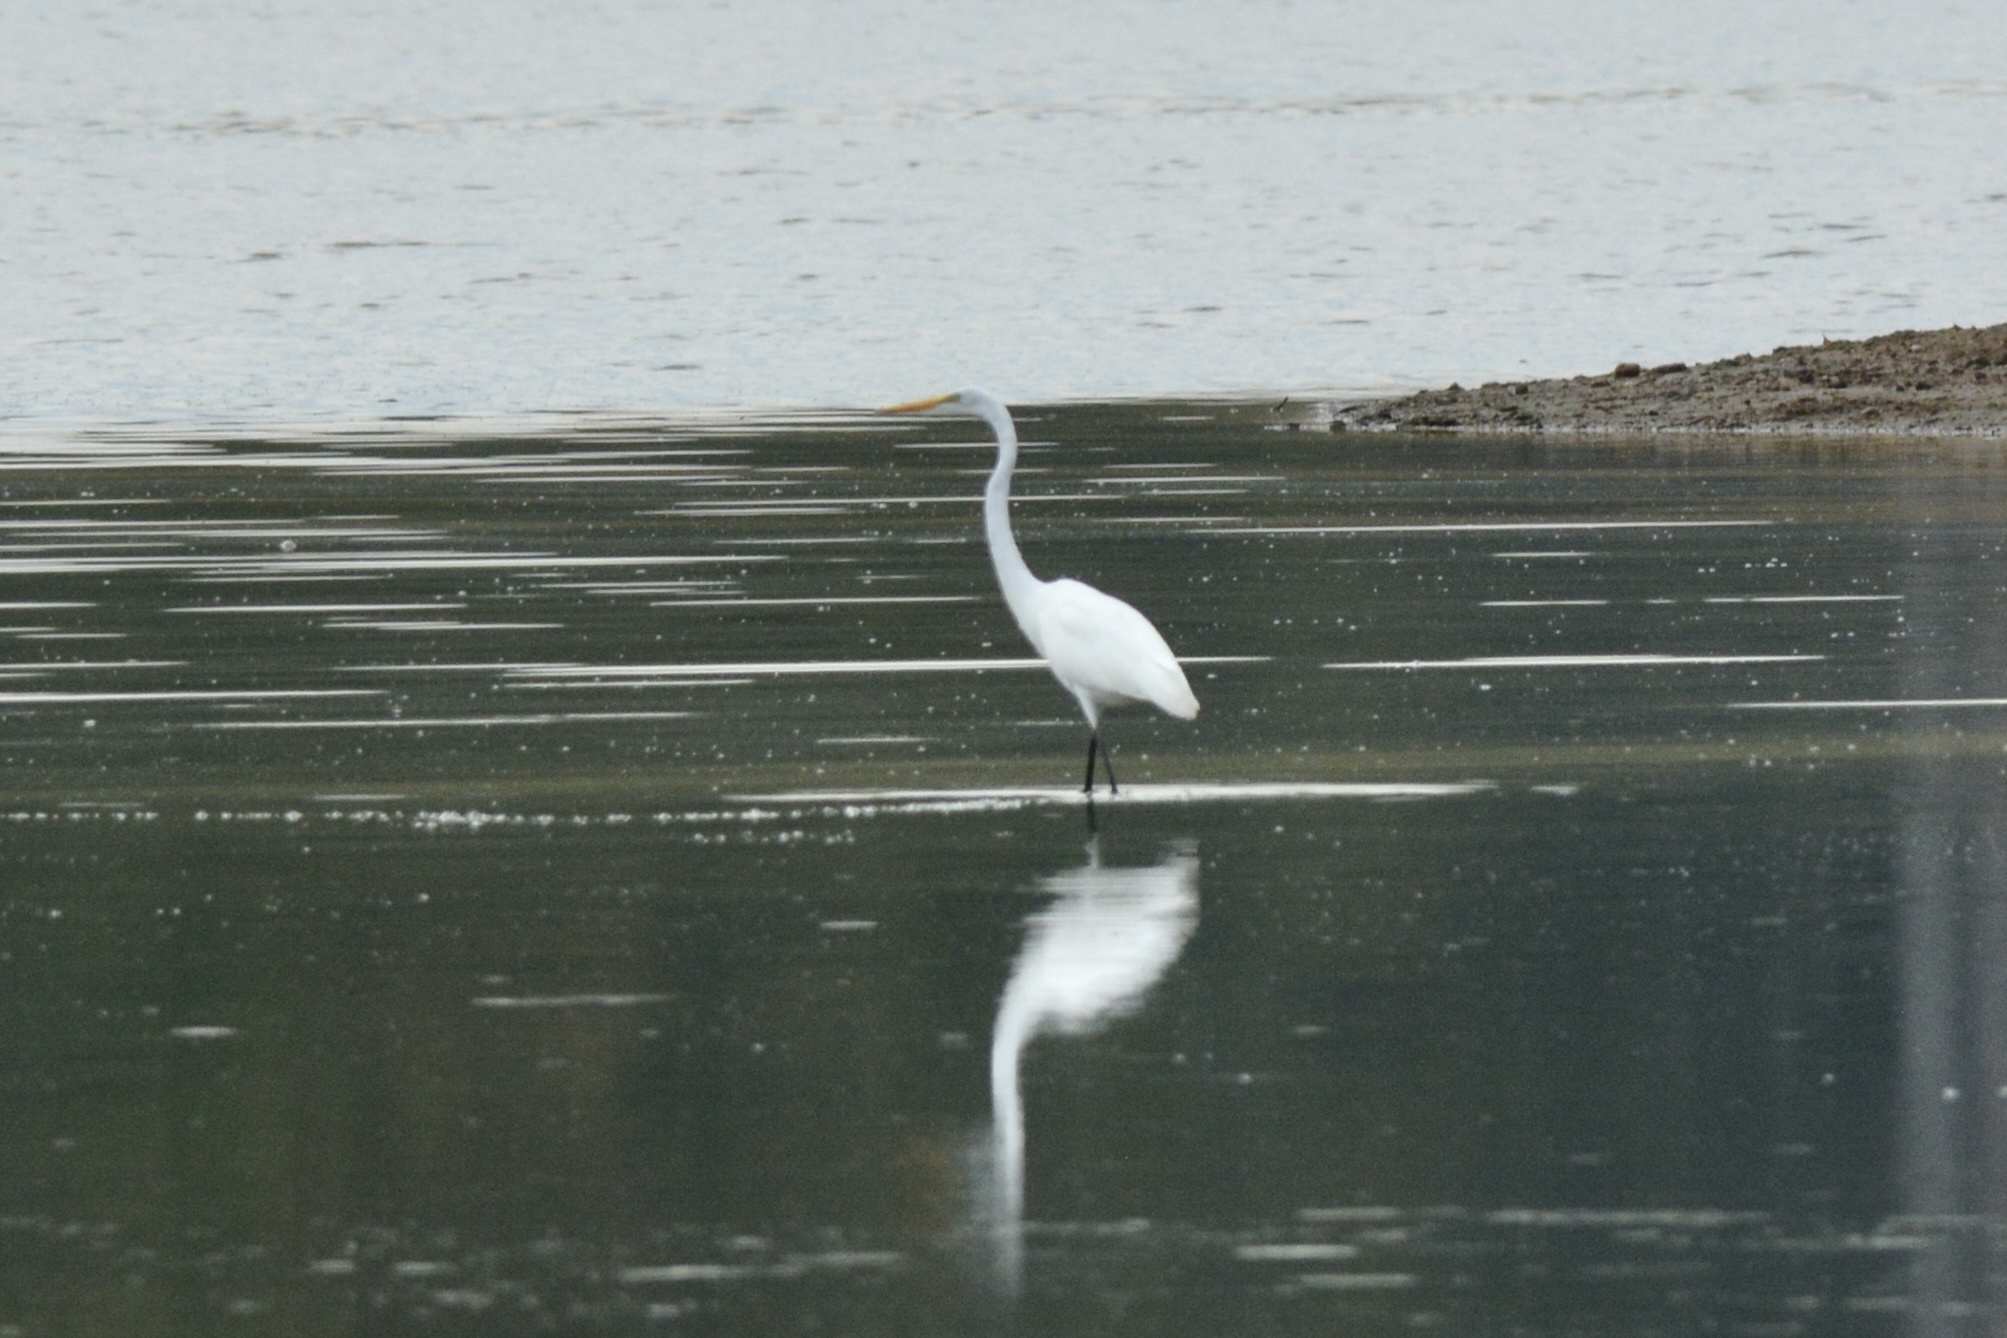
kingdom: Animalia
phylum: Chordata
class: Aves
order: Pelecaniformes
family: Ardeidae
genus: Ardea
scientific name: Ardea alba
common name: Great egret
